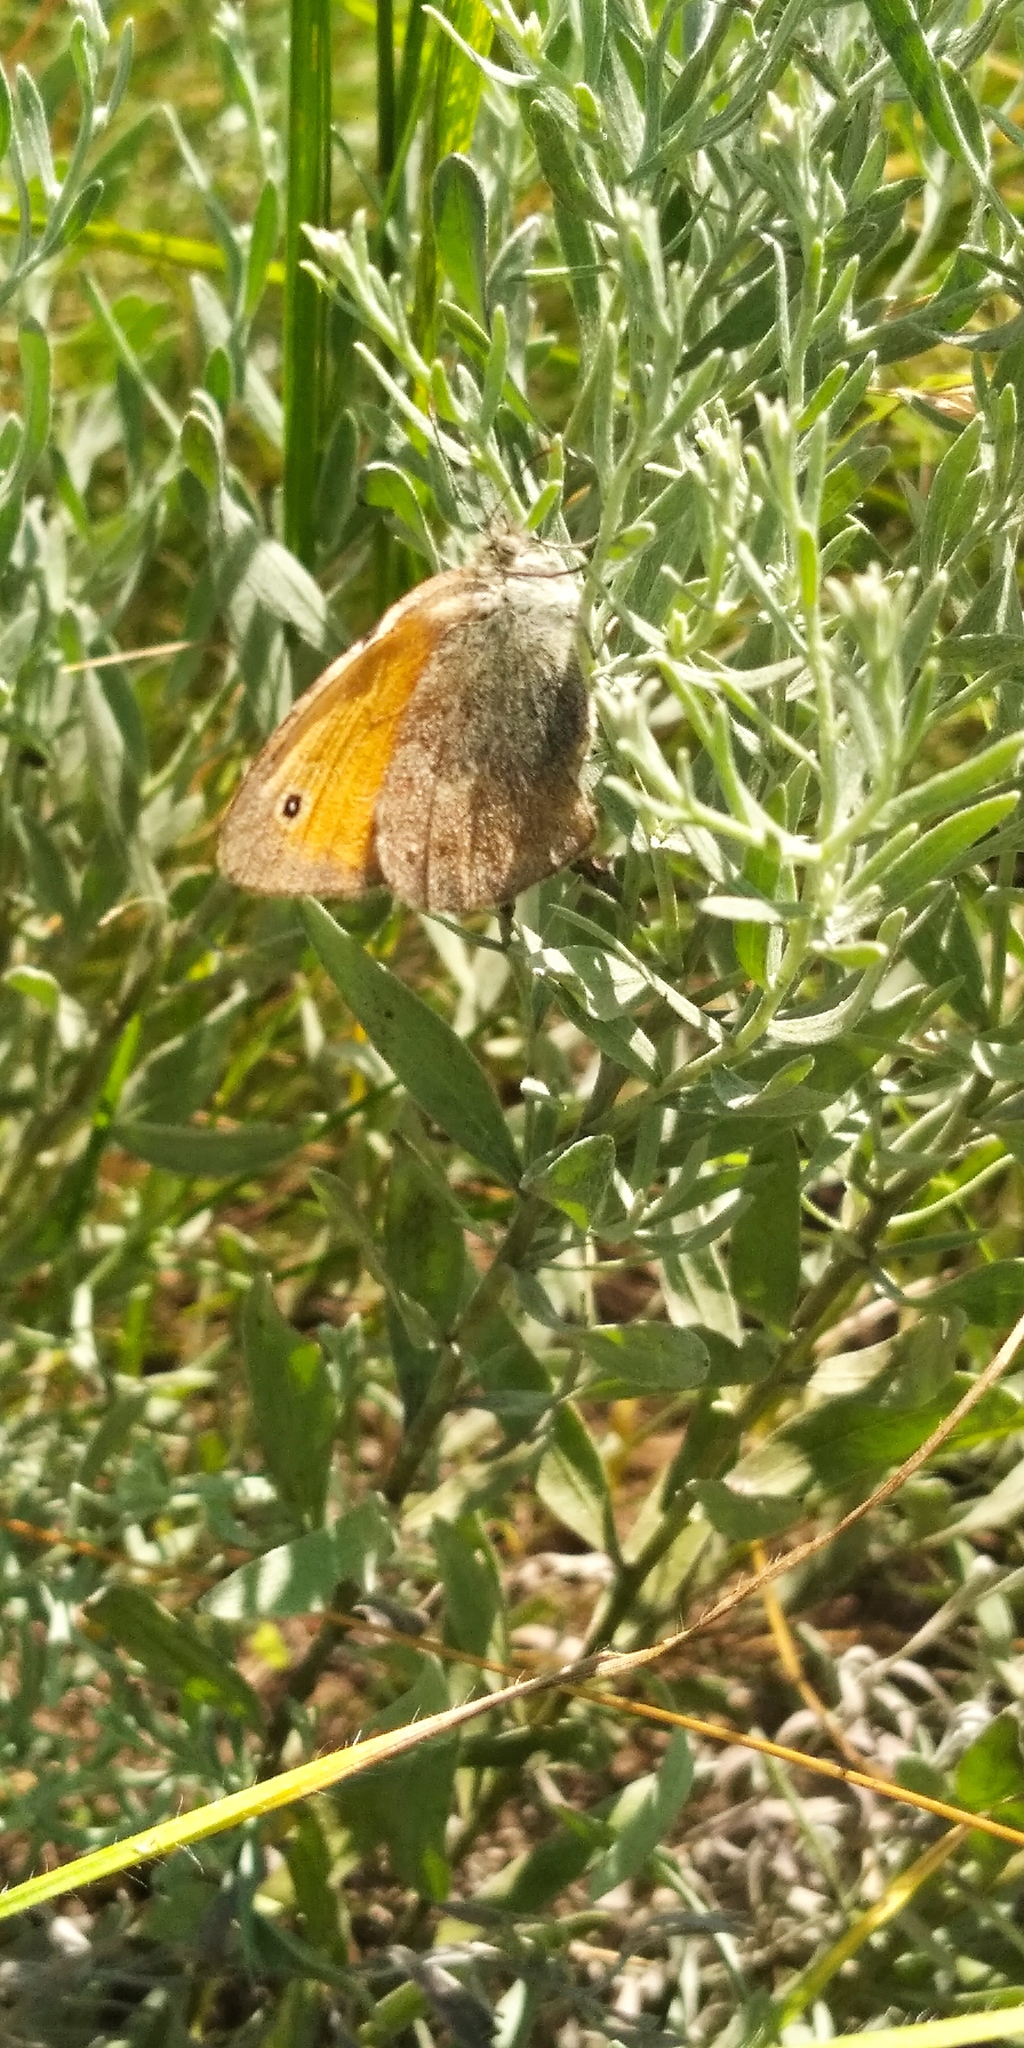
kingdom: Animalia
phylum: Arthropoda
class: Insecta
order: Lepidoptera
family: Nymphalidae
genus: Coenonympha
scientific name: Coenonympha pamphilus
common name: Small heath
